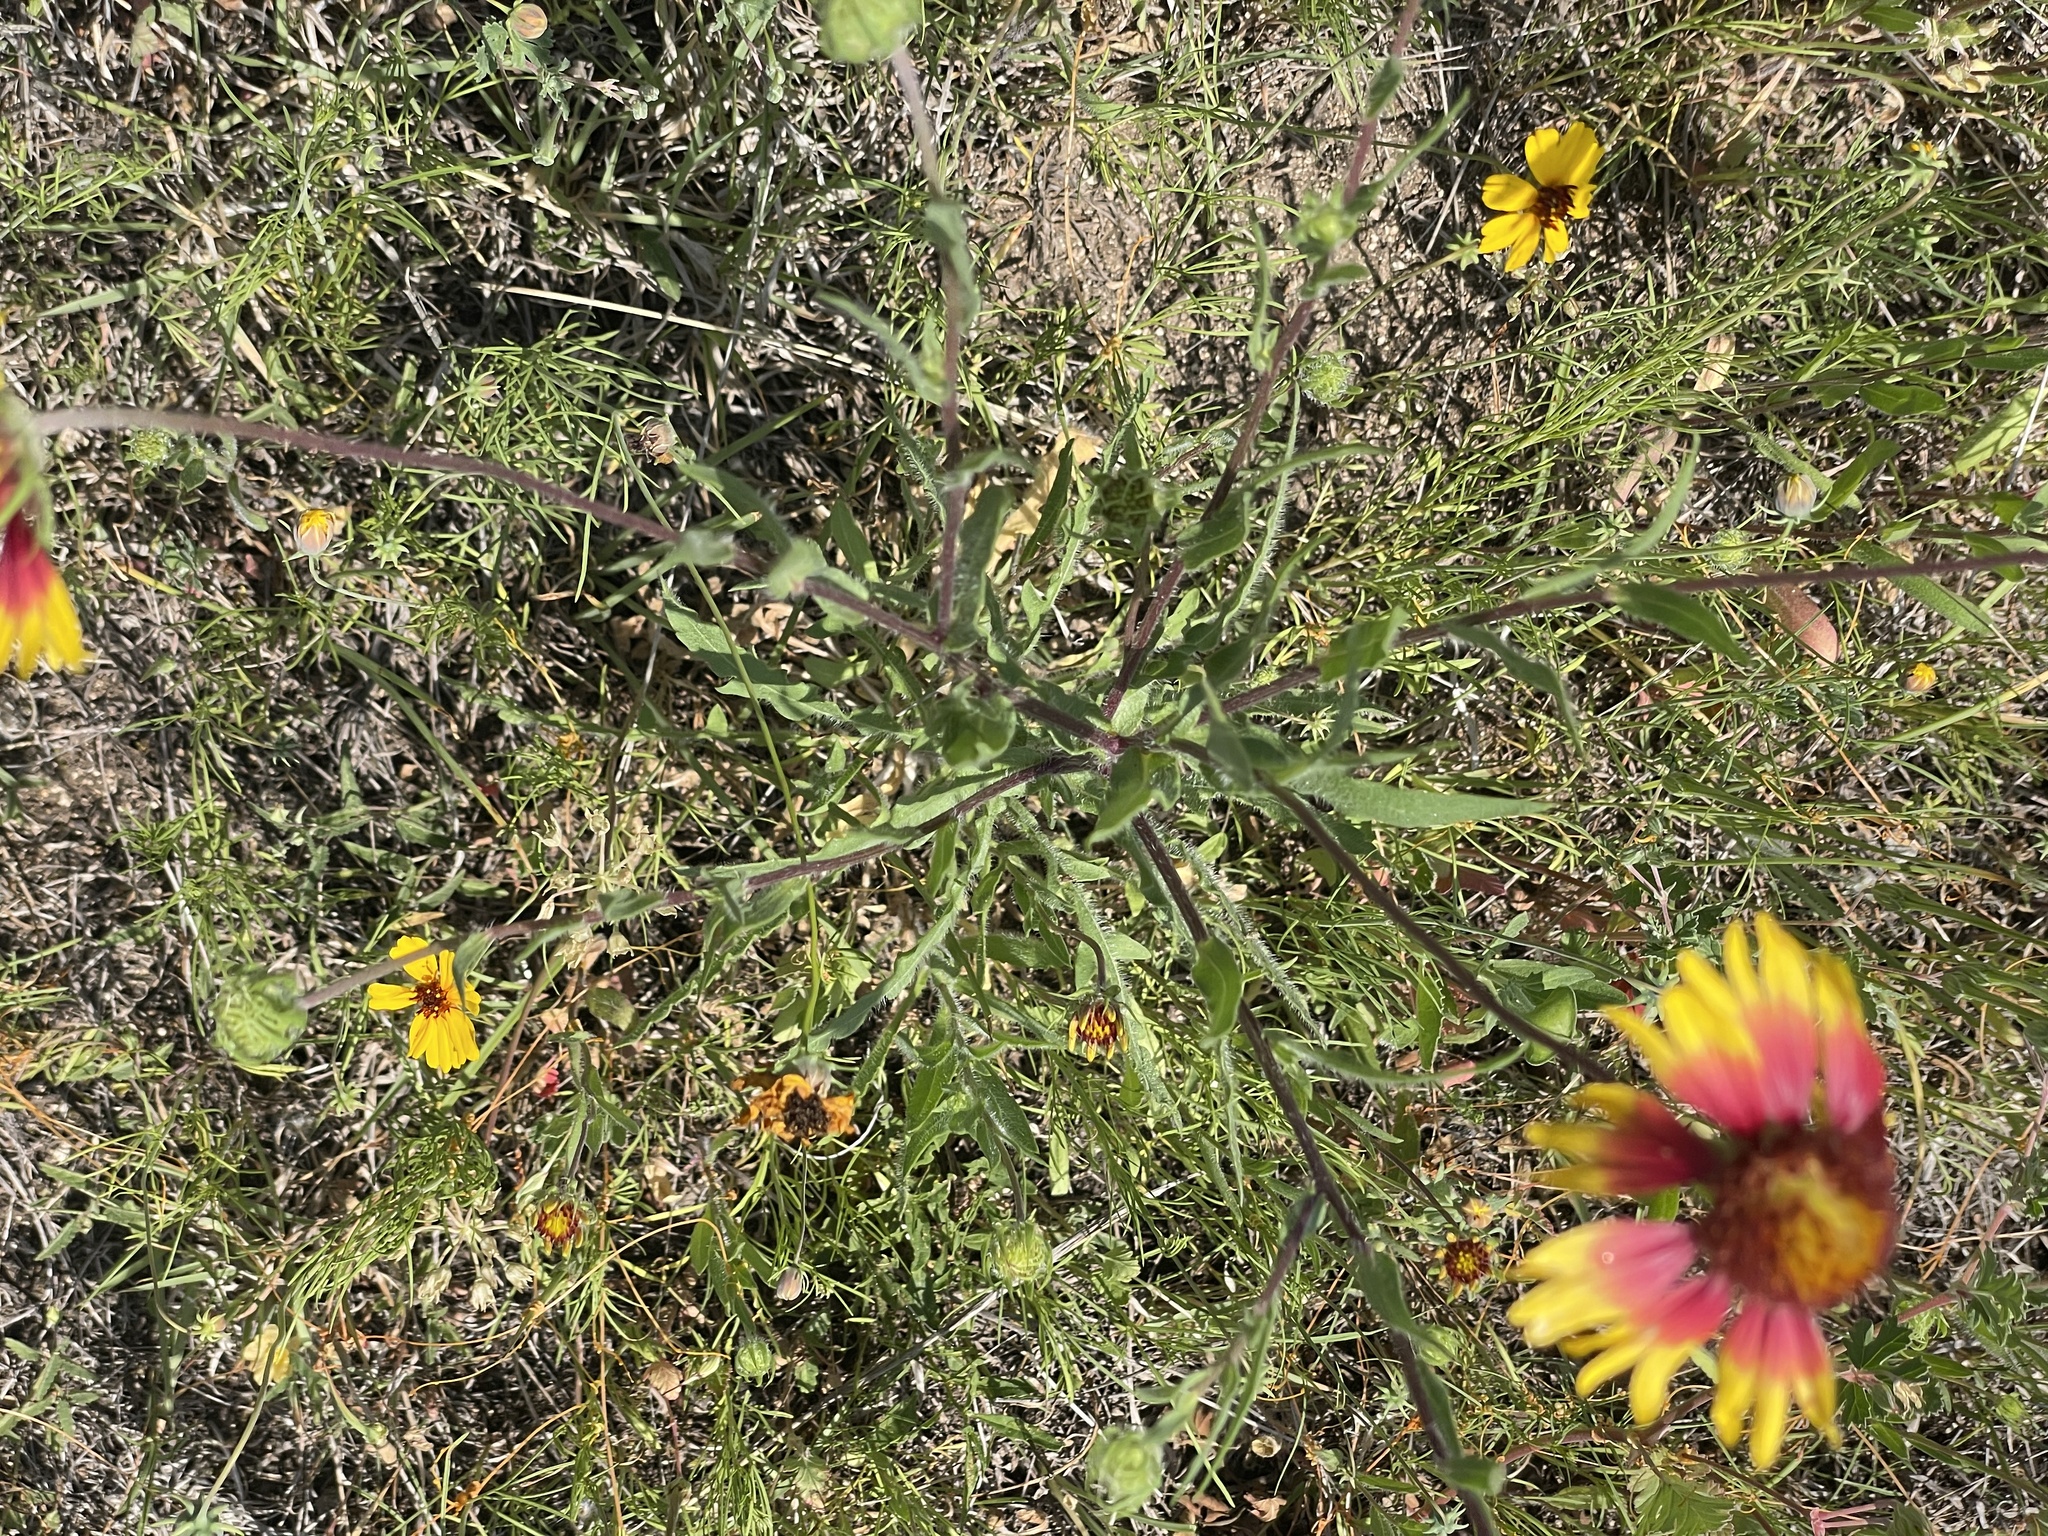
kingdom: Plantae
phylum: Tracheophyta
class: Magnoliopsida
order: Asterales
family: Asteraceae
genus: Gaillardia
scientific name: Gaillardia pulchella
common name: Firewheel
